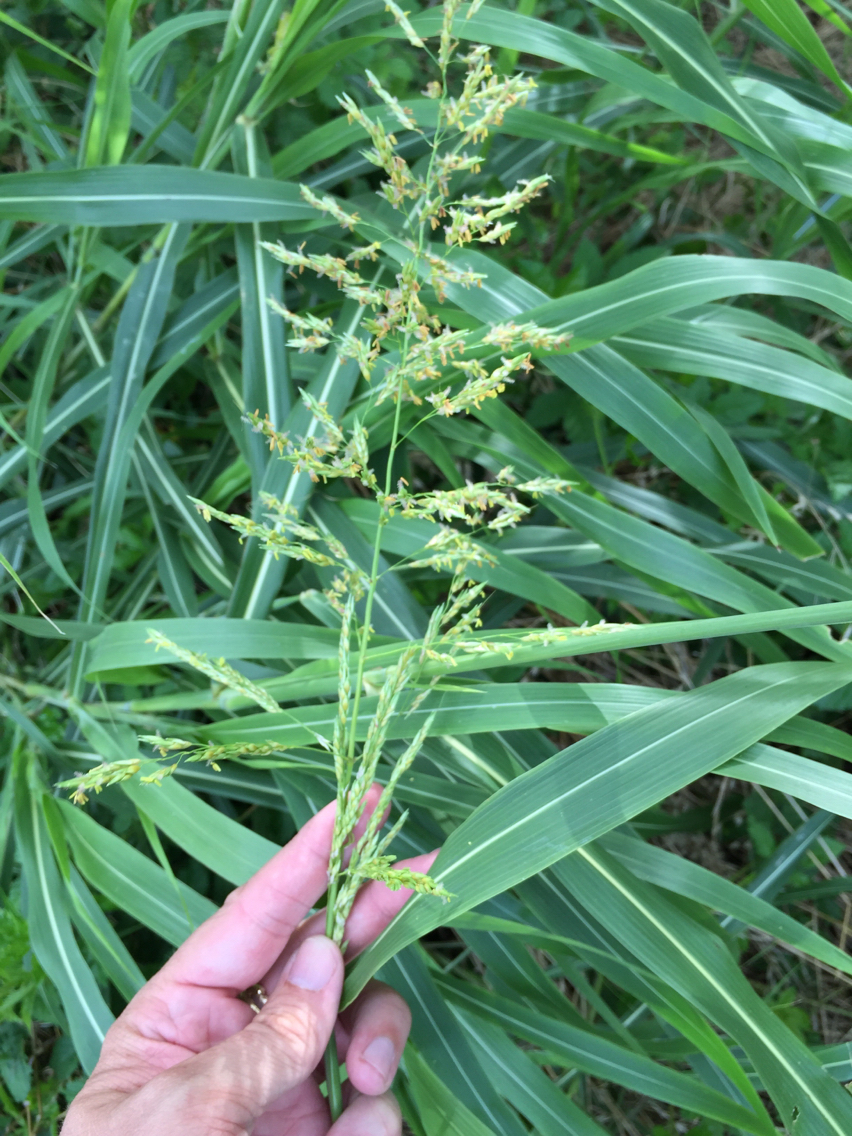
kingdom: Plantae
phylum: Tracheophyta
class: Liliopsida
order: Poales
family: Poaceae
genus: Sorghum
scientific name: Sorghum halepense
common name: Johnson-grass
